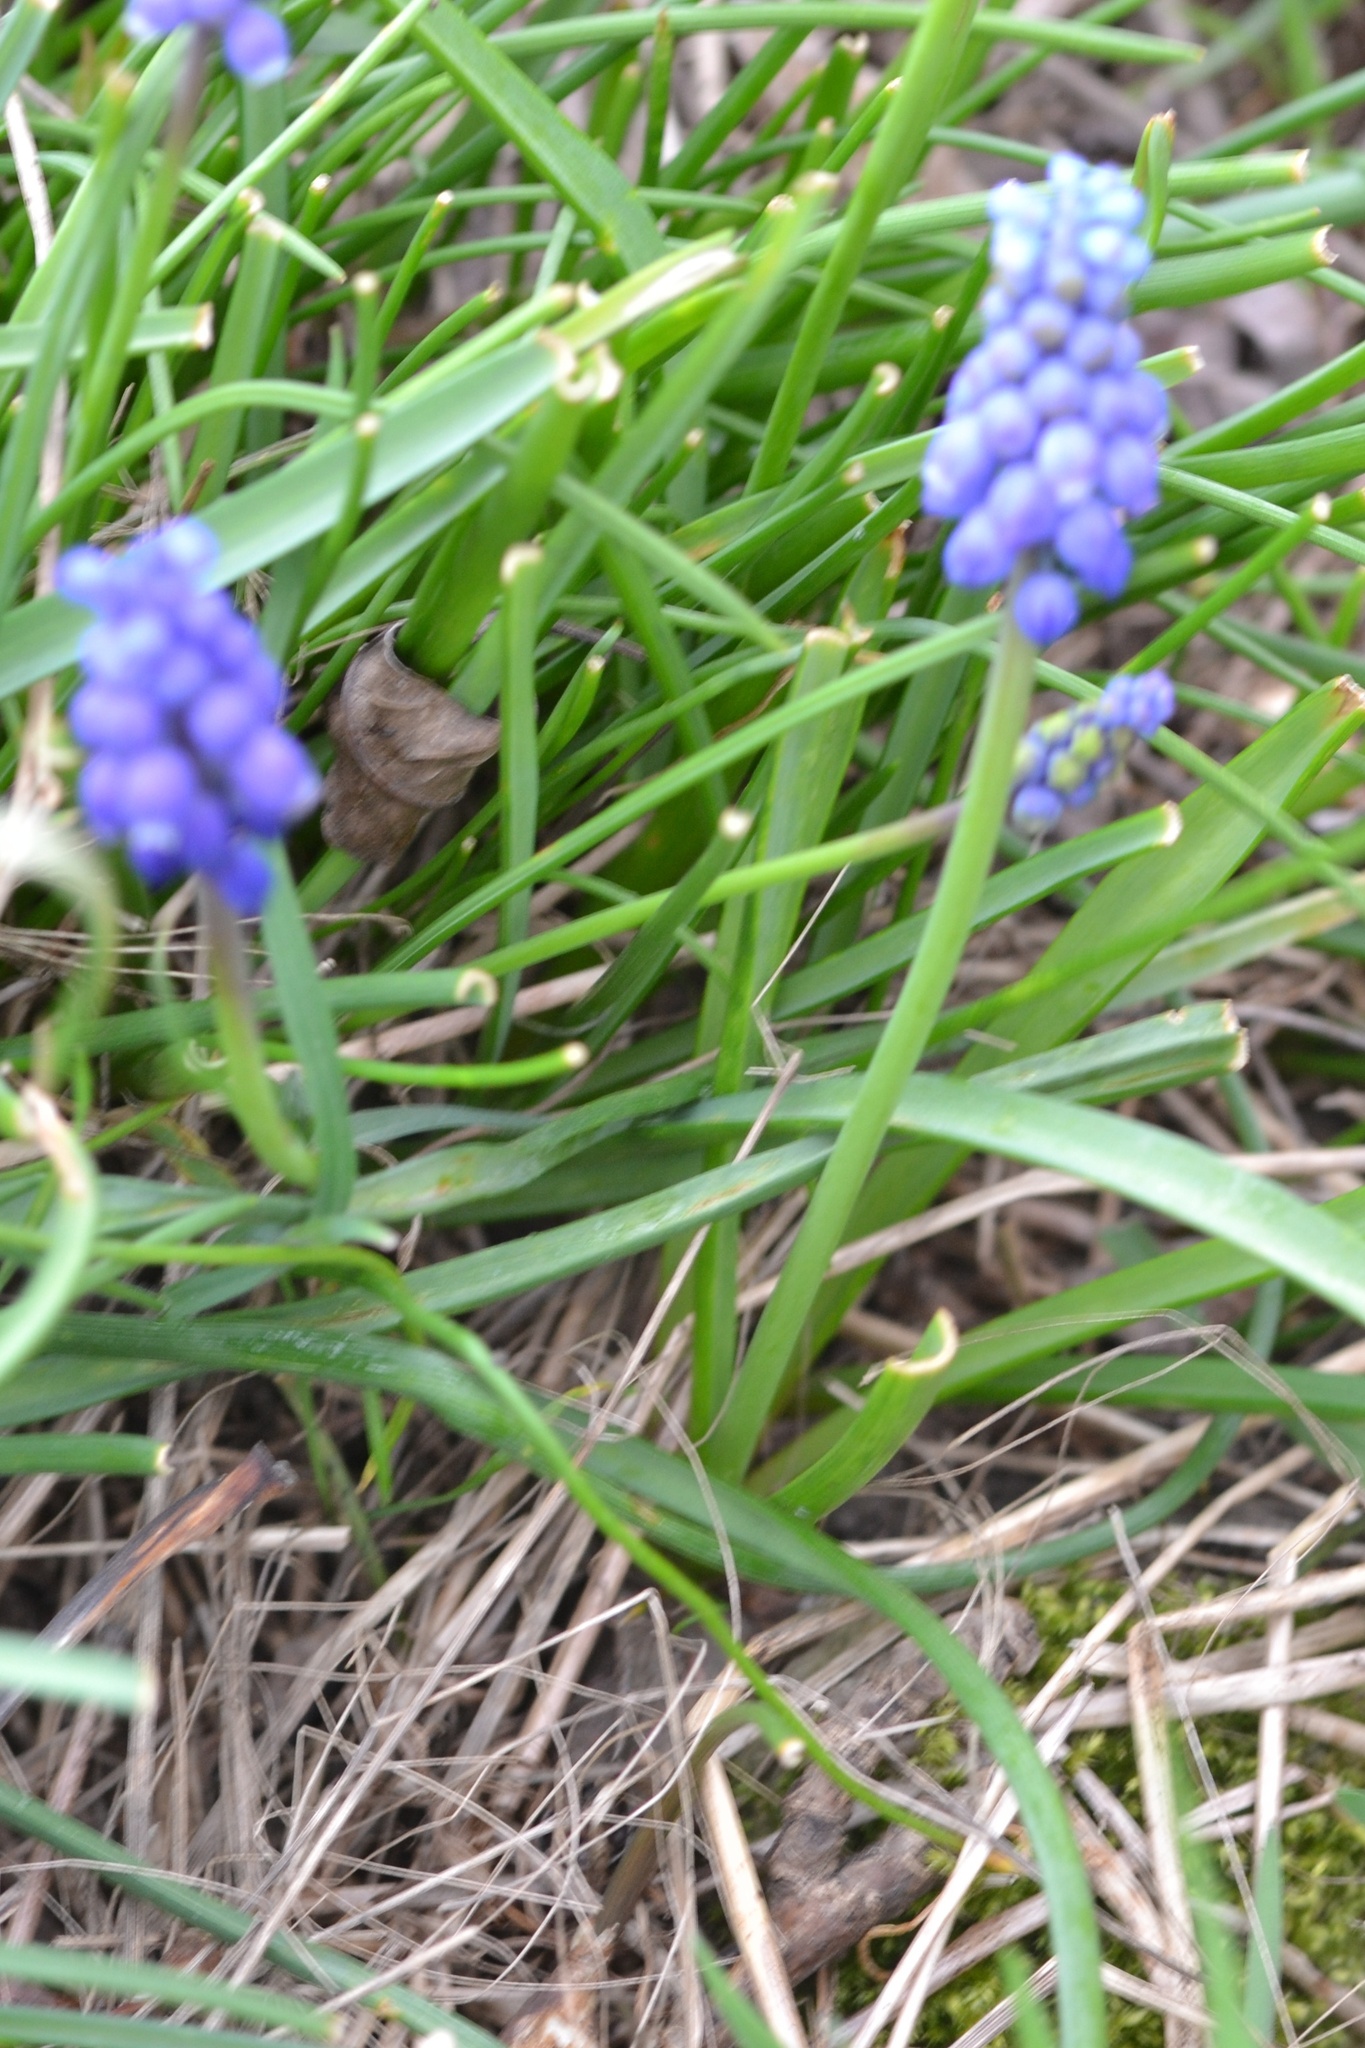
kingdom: Plantae
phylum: Tracheophyta
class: Liliopsida
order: Asparagales
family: Asparagaceae
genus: Muscari
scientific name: Muscari armeniacum
